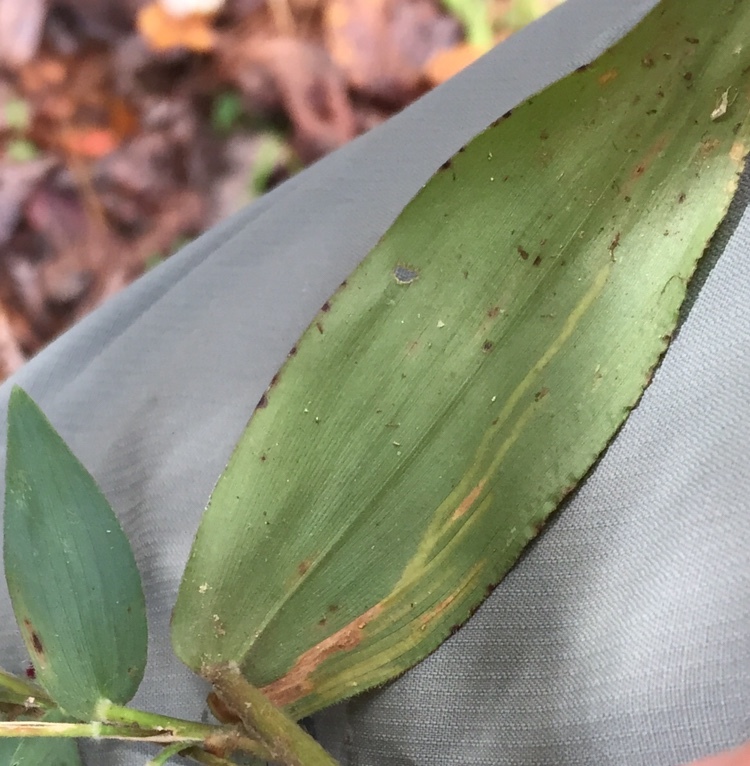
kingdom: Animalia
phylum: Arthropoda
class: Insecta
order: Diptera
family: Agromyzidae
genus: Cerodontha
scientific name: Cerodontha dorsalis
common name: Grass sheathminer fly
